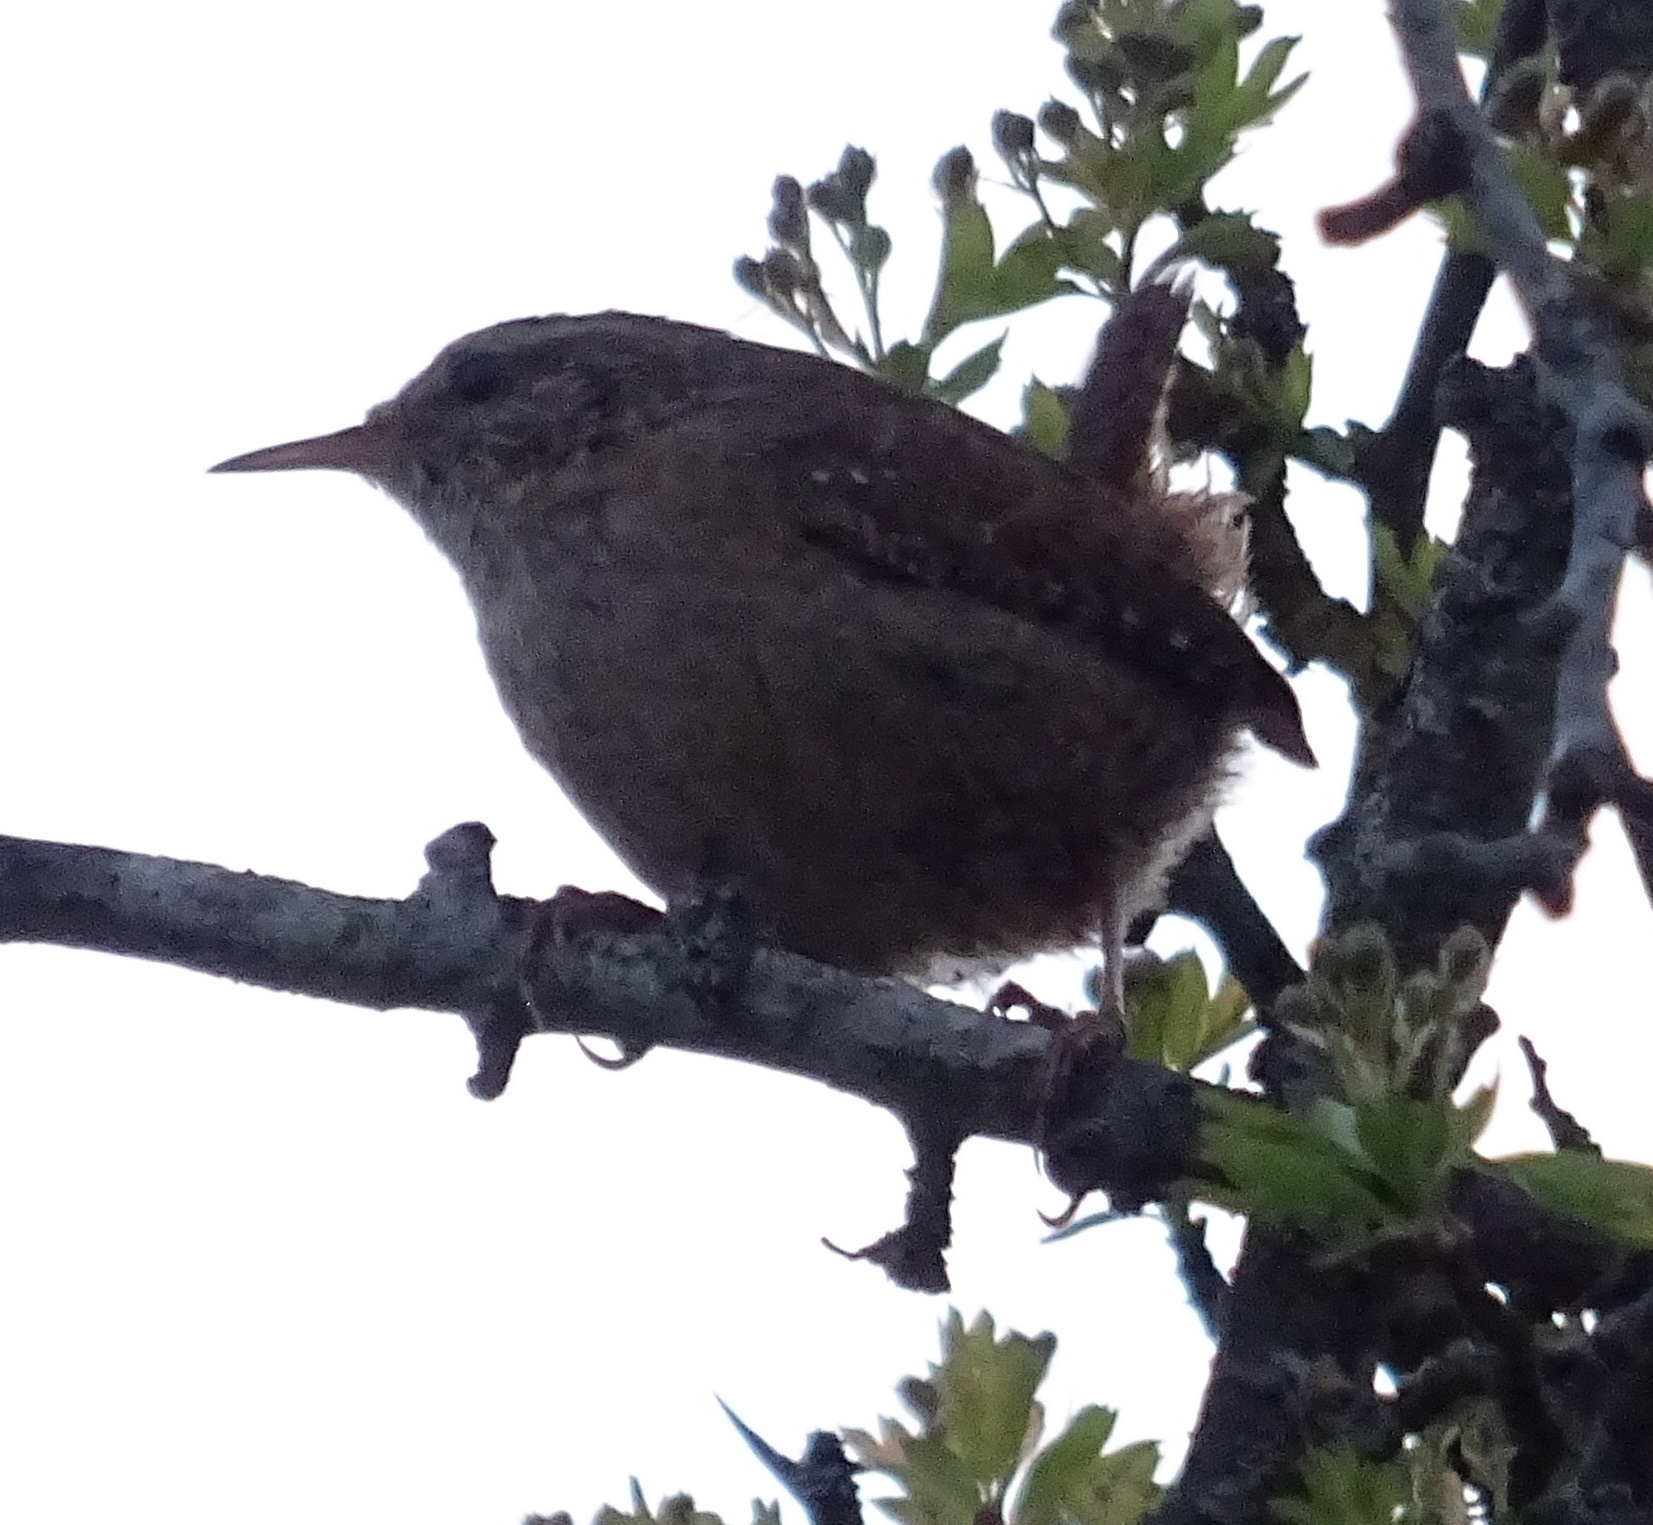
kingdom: Animalia
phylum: Chordata
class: Aves
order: Passeriformes
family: Troglodytidae
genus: Troglodytes
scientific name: Troglodytes troglodytes
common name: Eurasian wren
